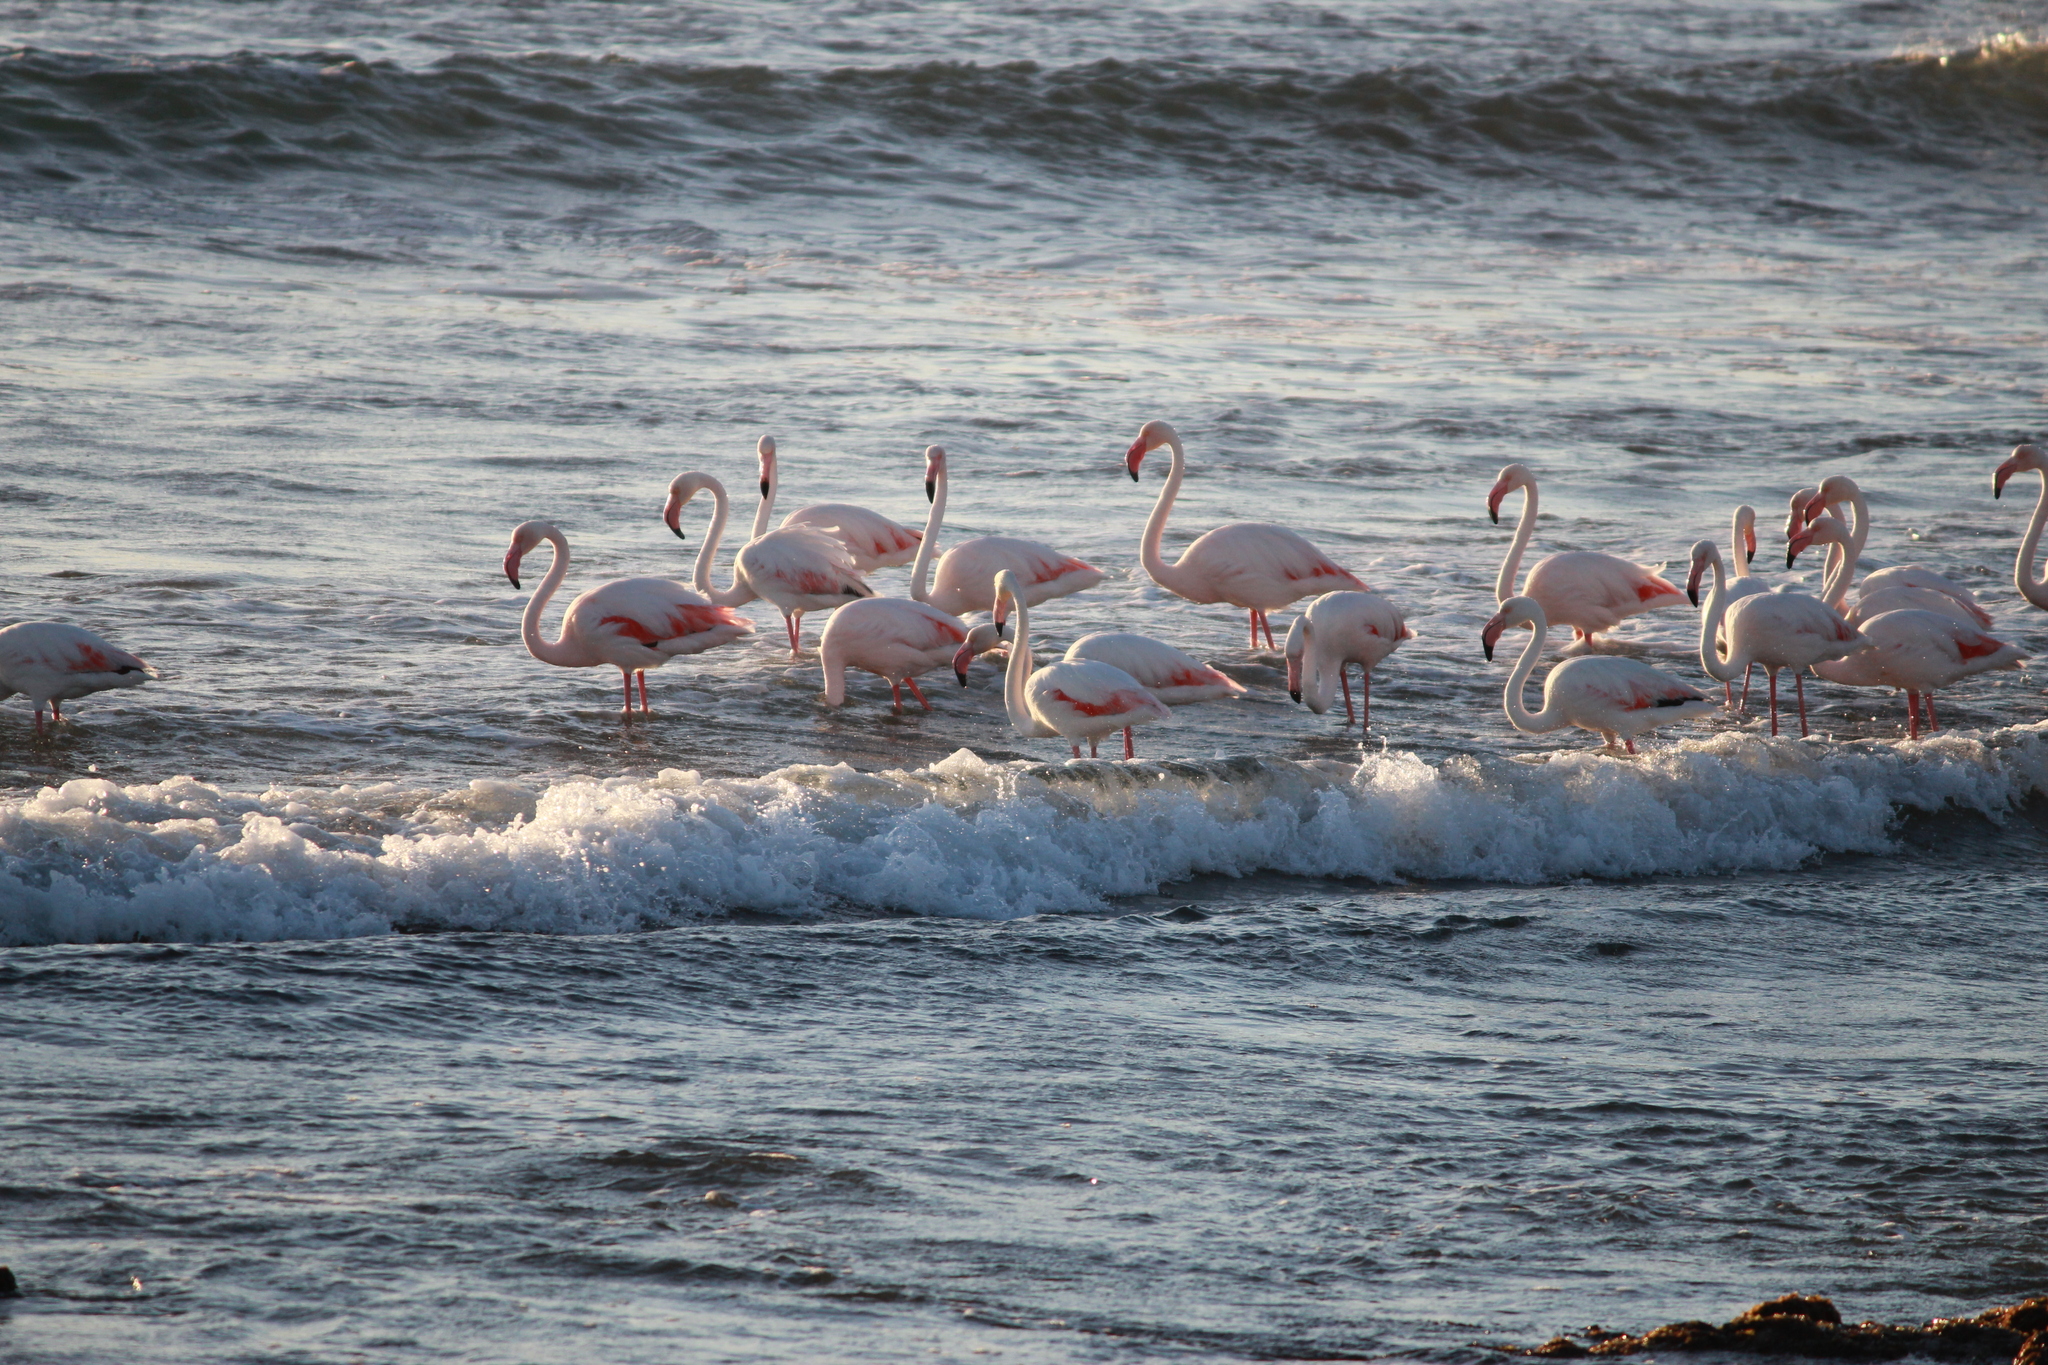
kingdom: Animalia
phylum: Chordata
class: Aves
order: Phoenicopteriformes
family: Phoenicopteridae
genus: Phoenicopterus
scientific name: Phoenicopterus roseus
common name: Greater flamingo
